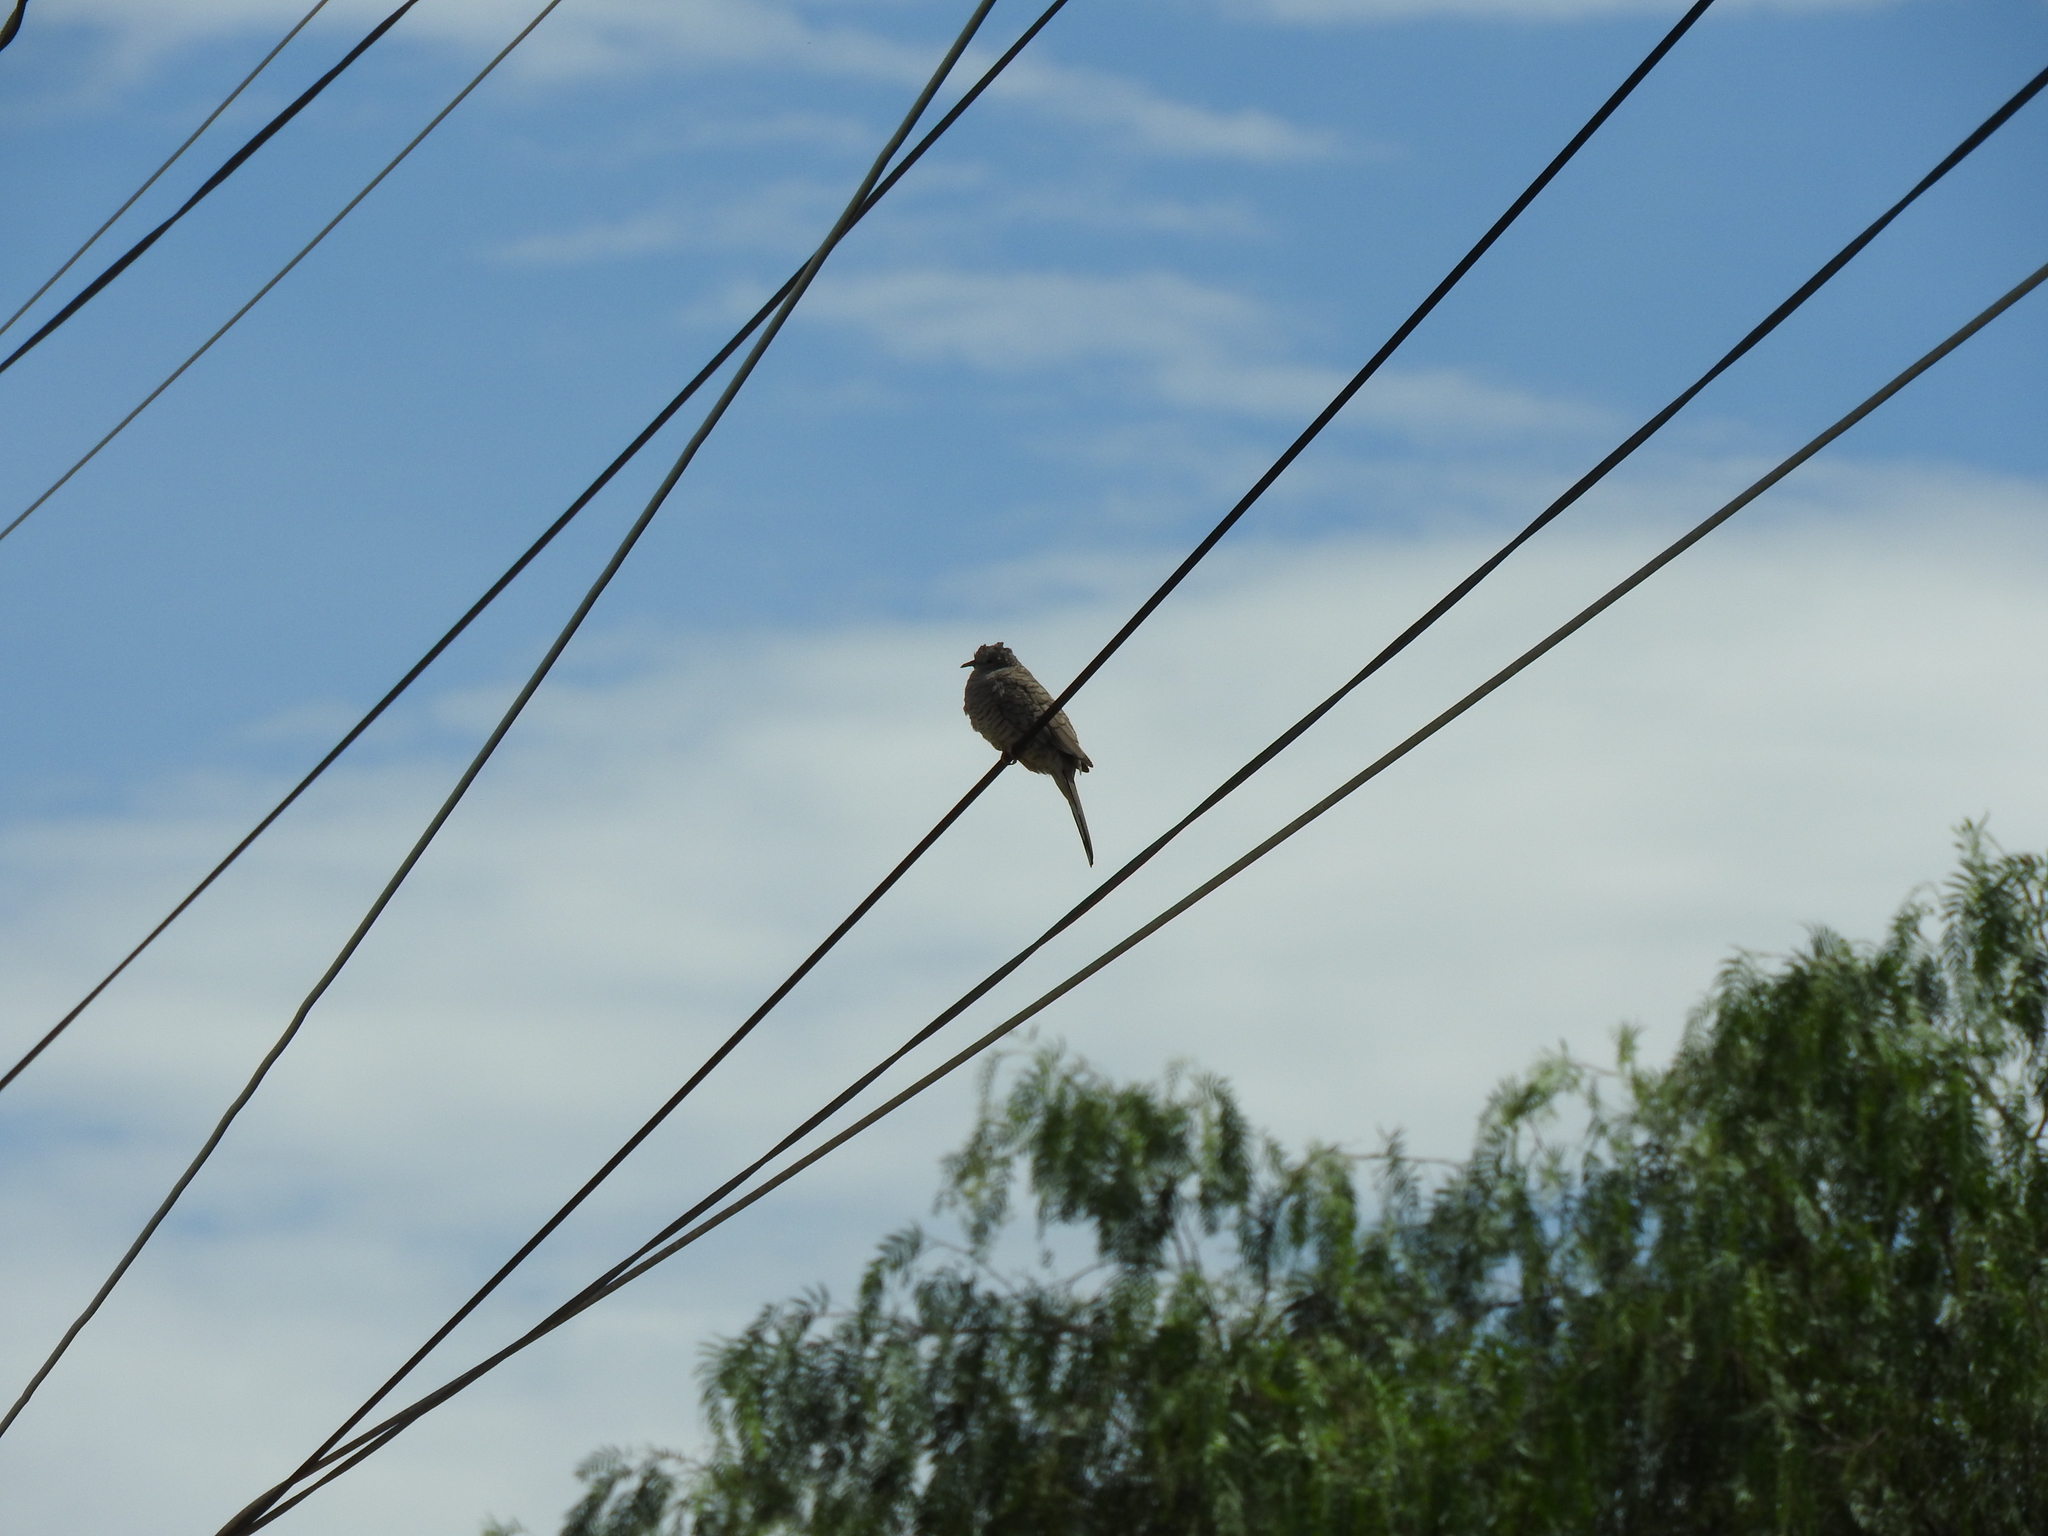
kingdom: Animalia
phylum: Chordata
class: Aves
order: Columbiformes
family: Columbidae
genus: Columbina
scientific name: Columbina inca
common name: Inca dove
